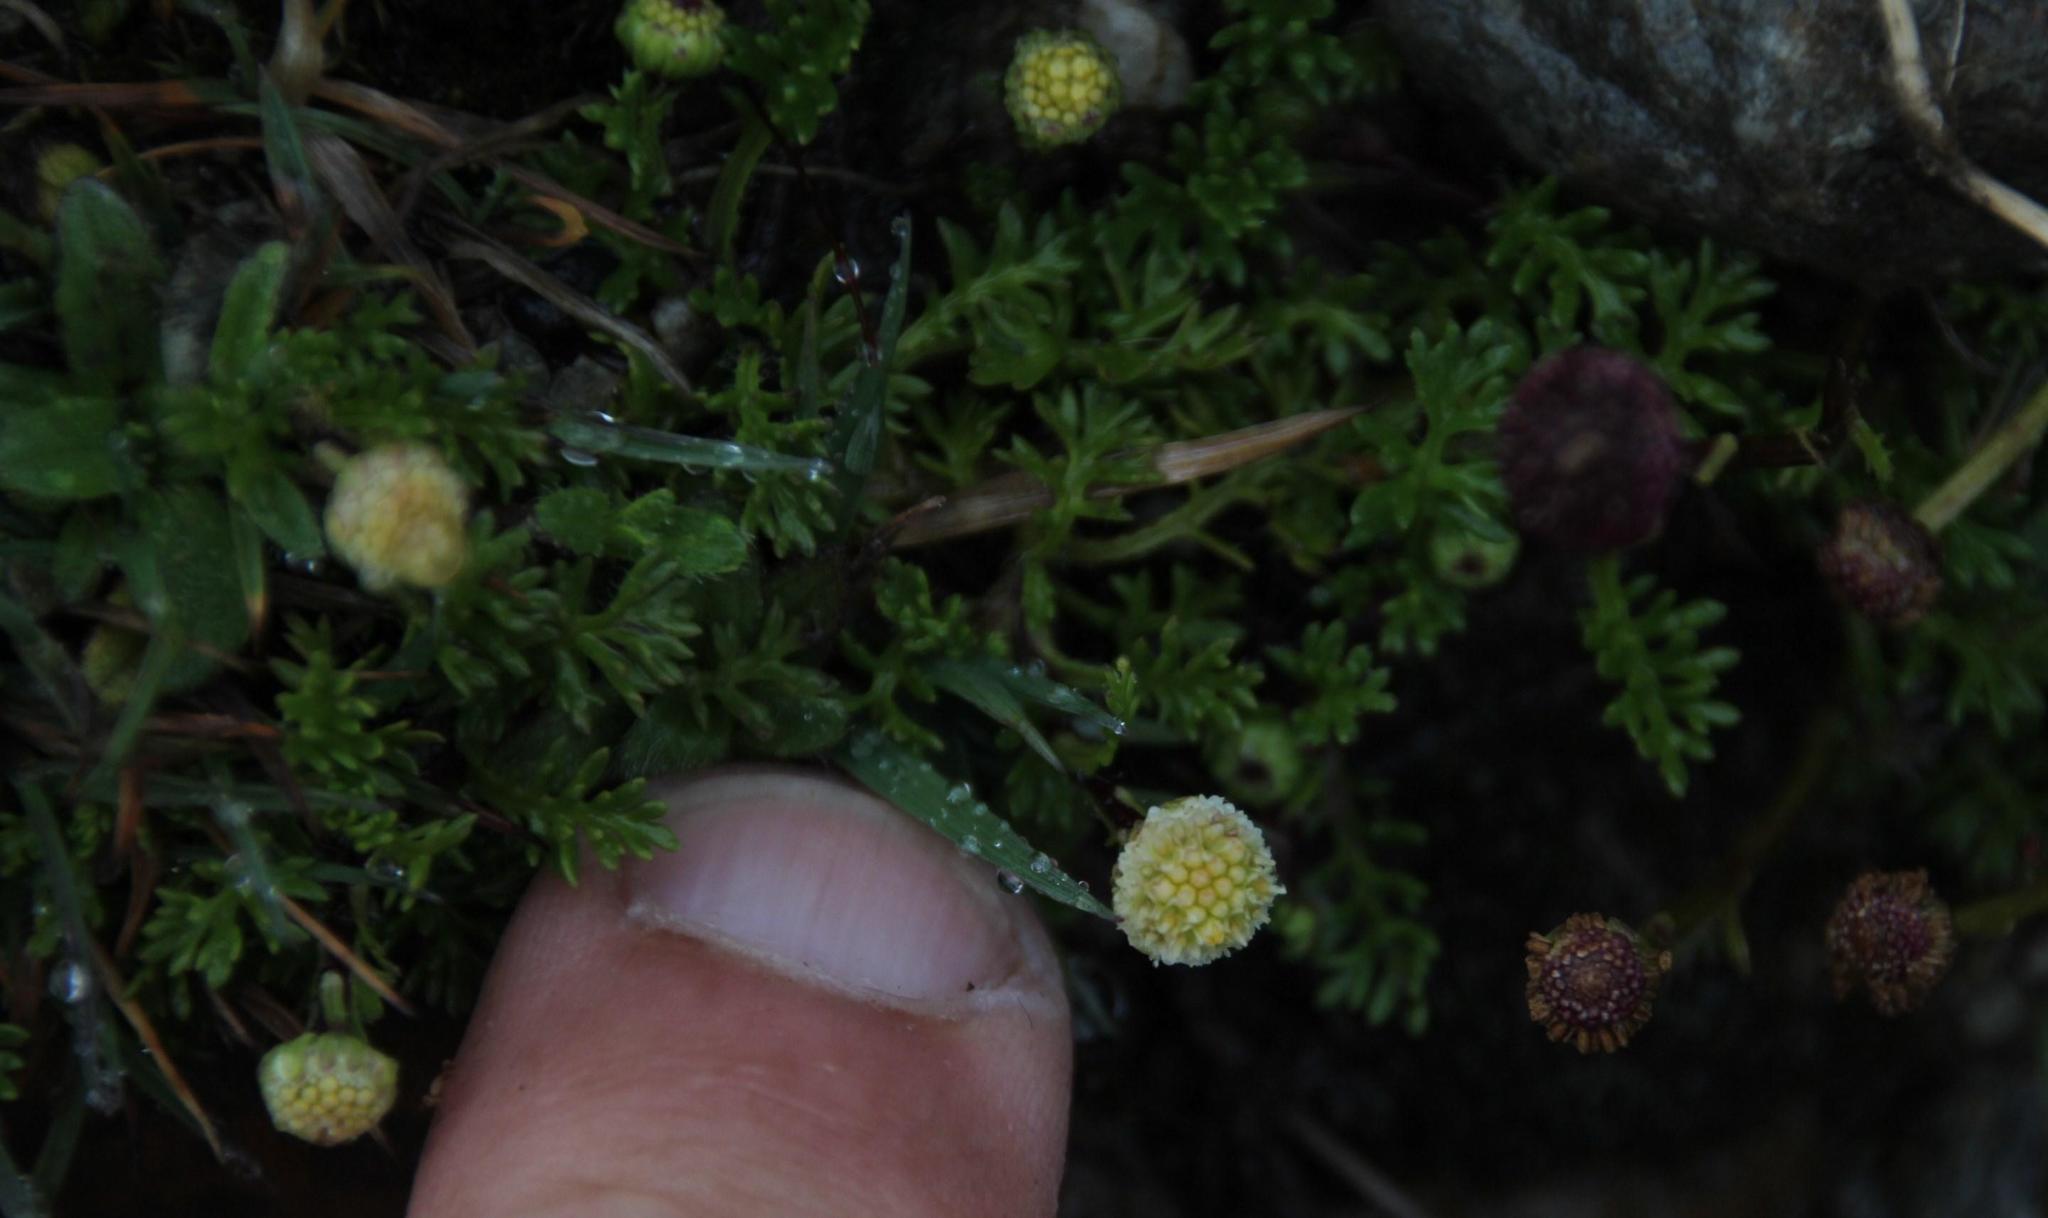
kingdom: Plantae
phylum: Tracheophyta
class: Magnoliopsida
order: Asterales
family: Asteraceae
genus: Cotula
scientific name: Cotula australis
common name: Australian waterbuttons
